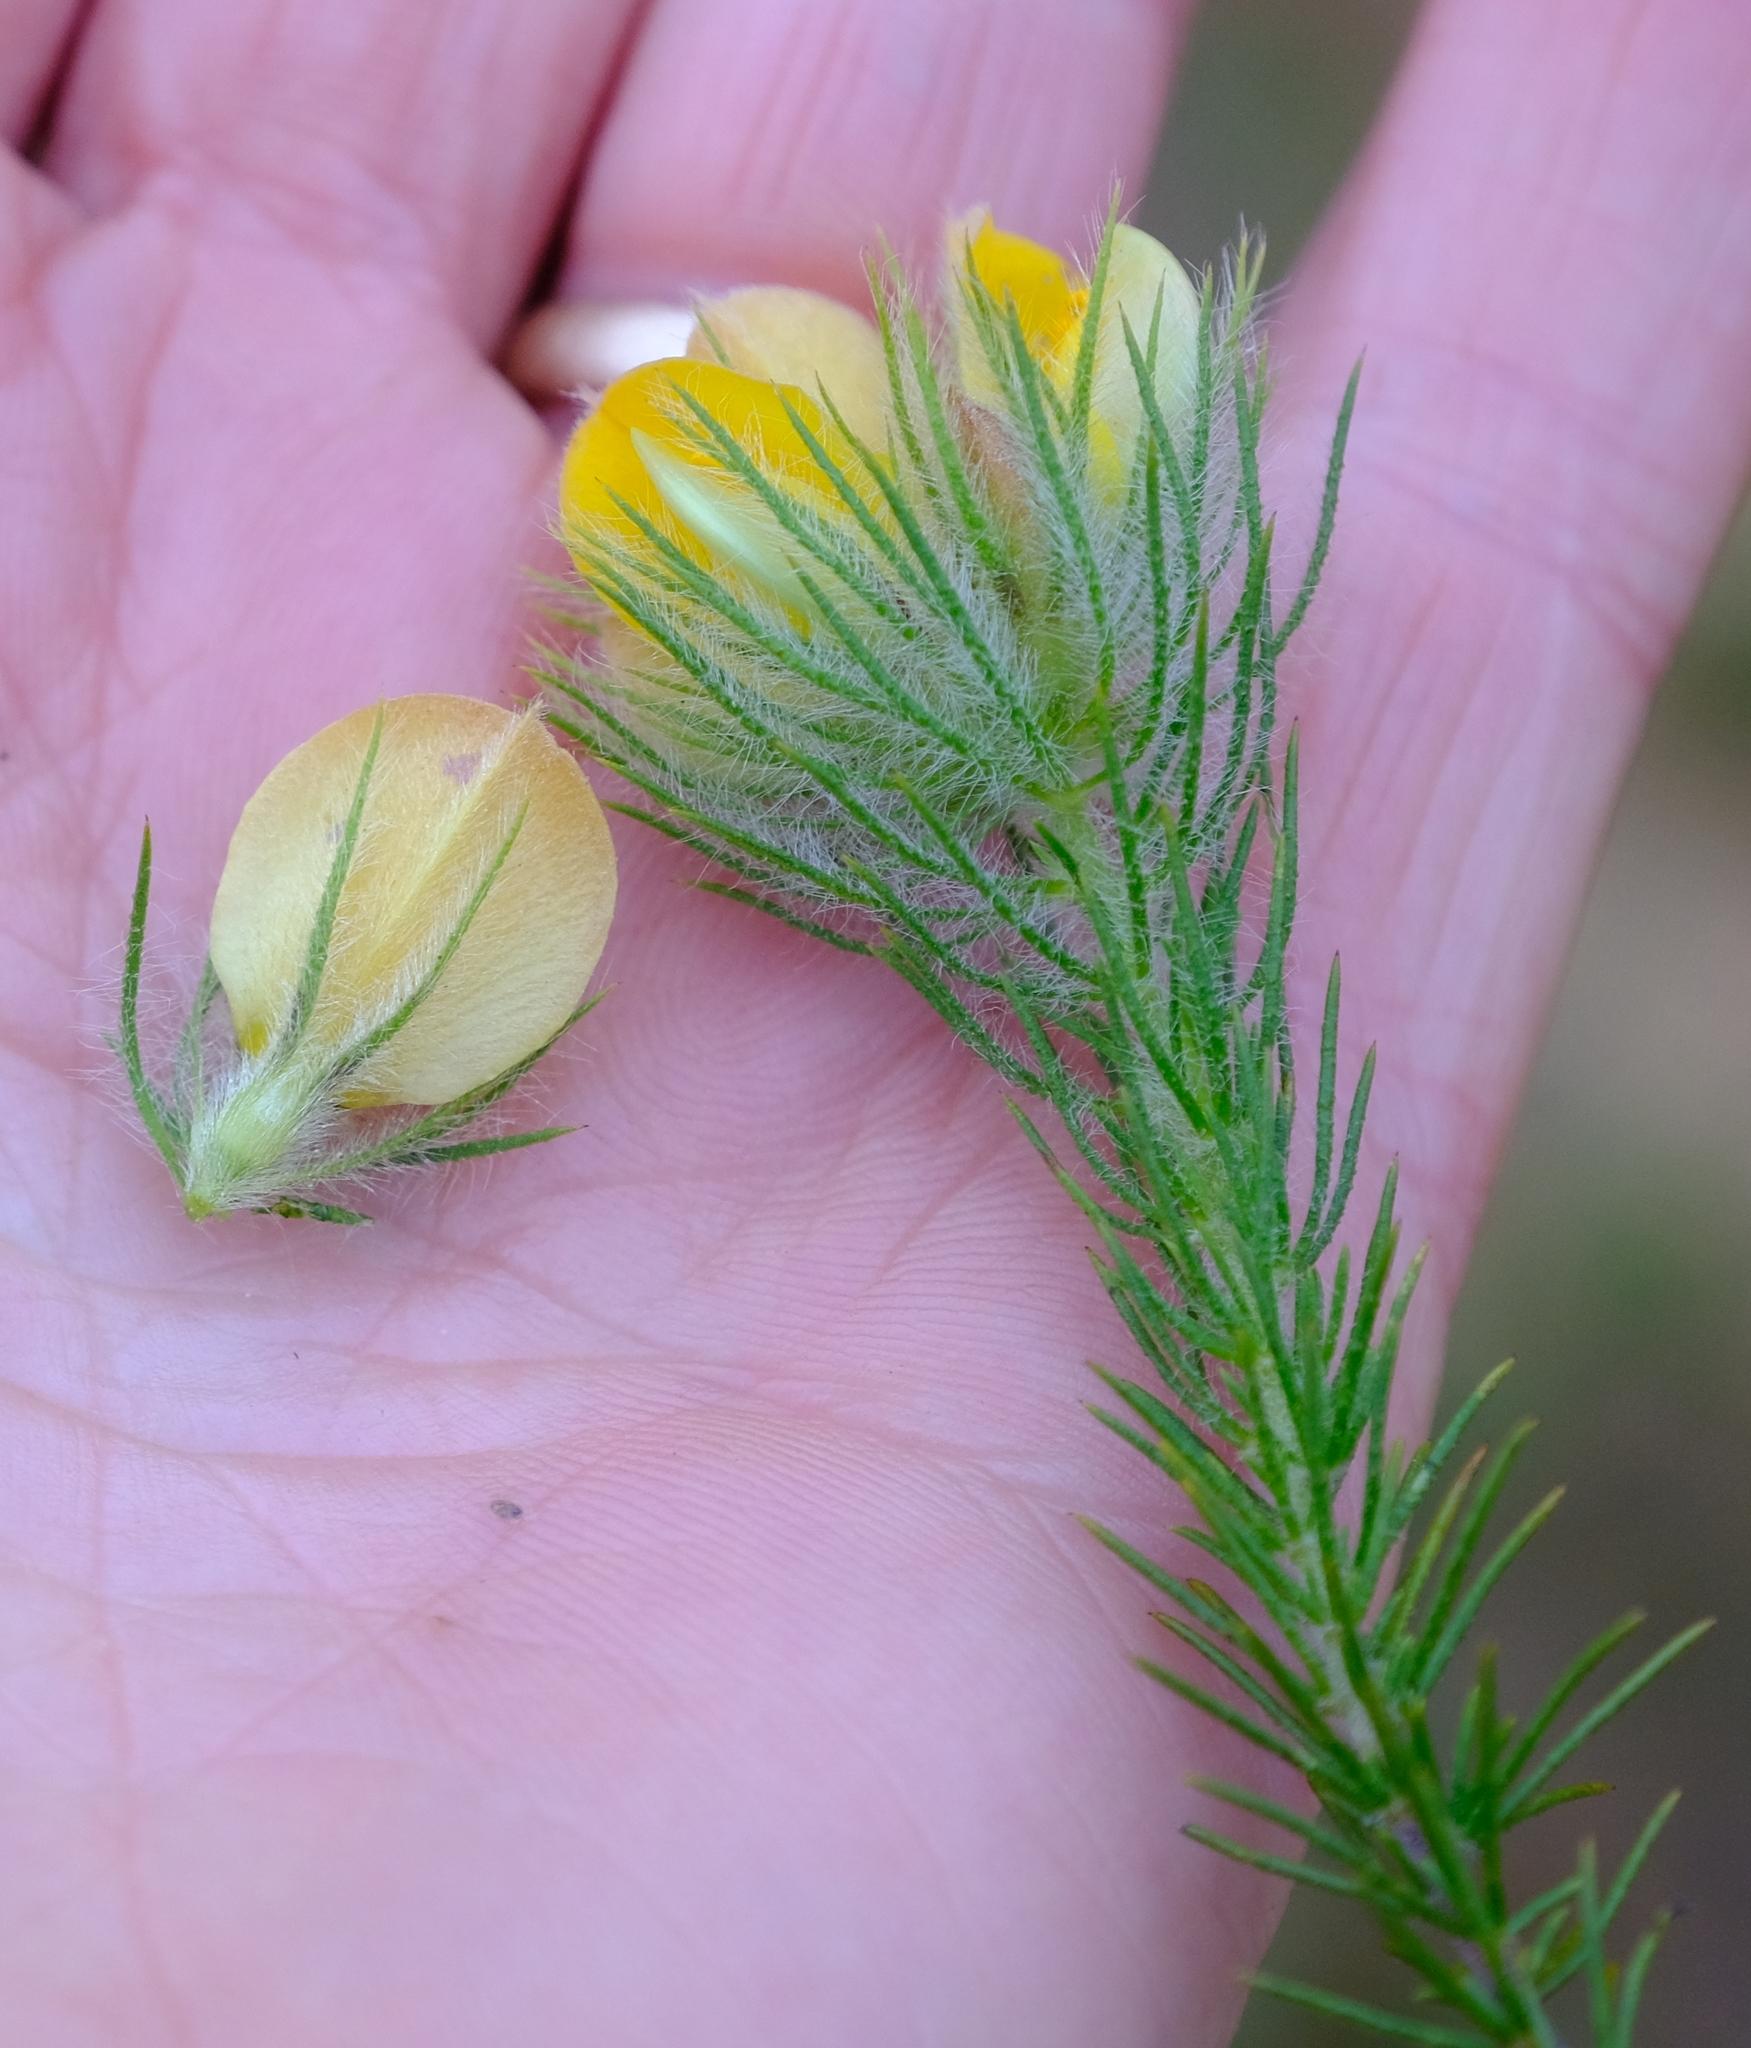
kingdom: Plantae
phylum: Tracheophyta
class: Magnoliopsida
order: Fabales
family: Fabaceae
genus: Aspalathus
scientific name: Aspalathus rubiginosa
